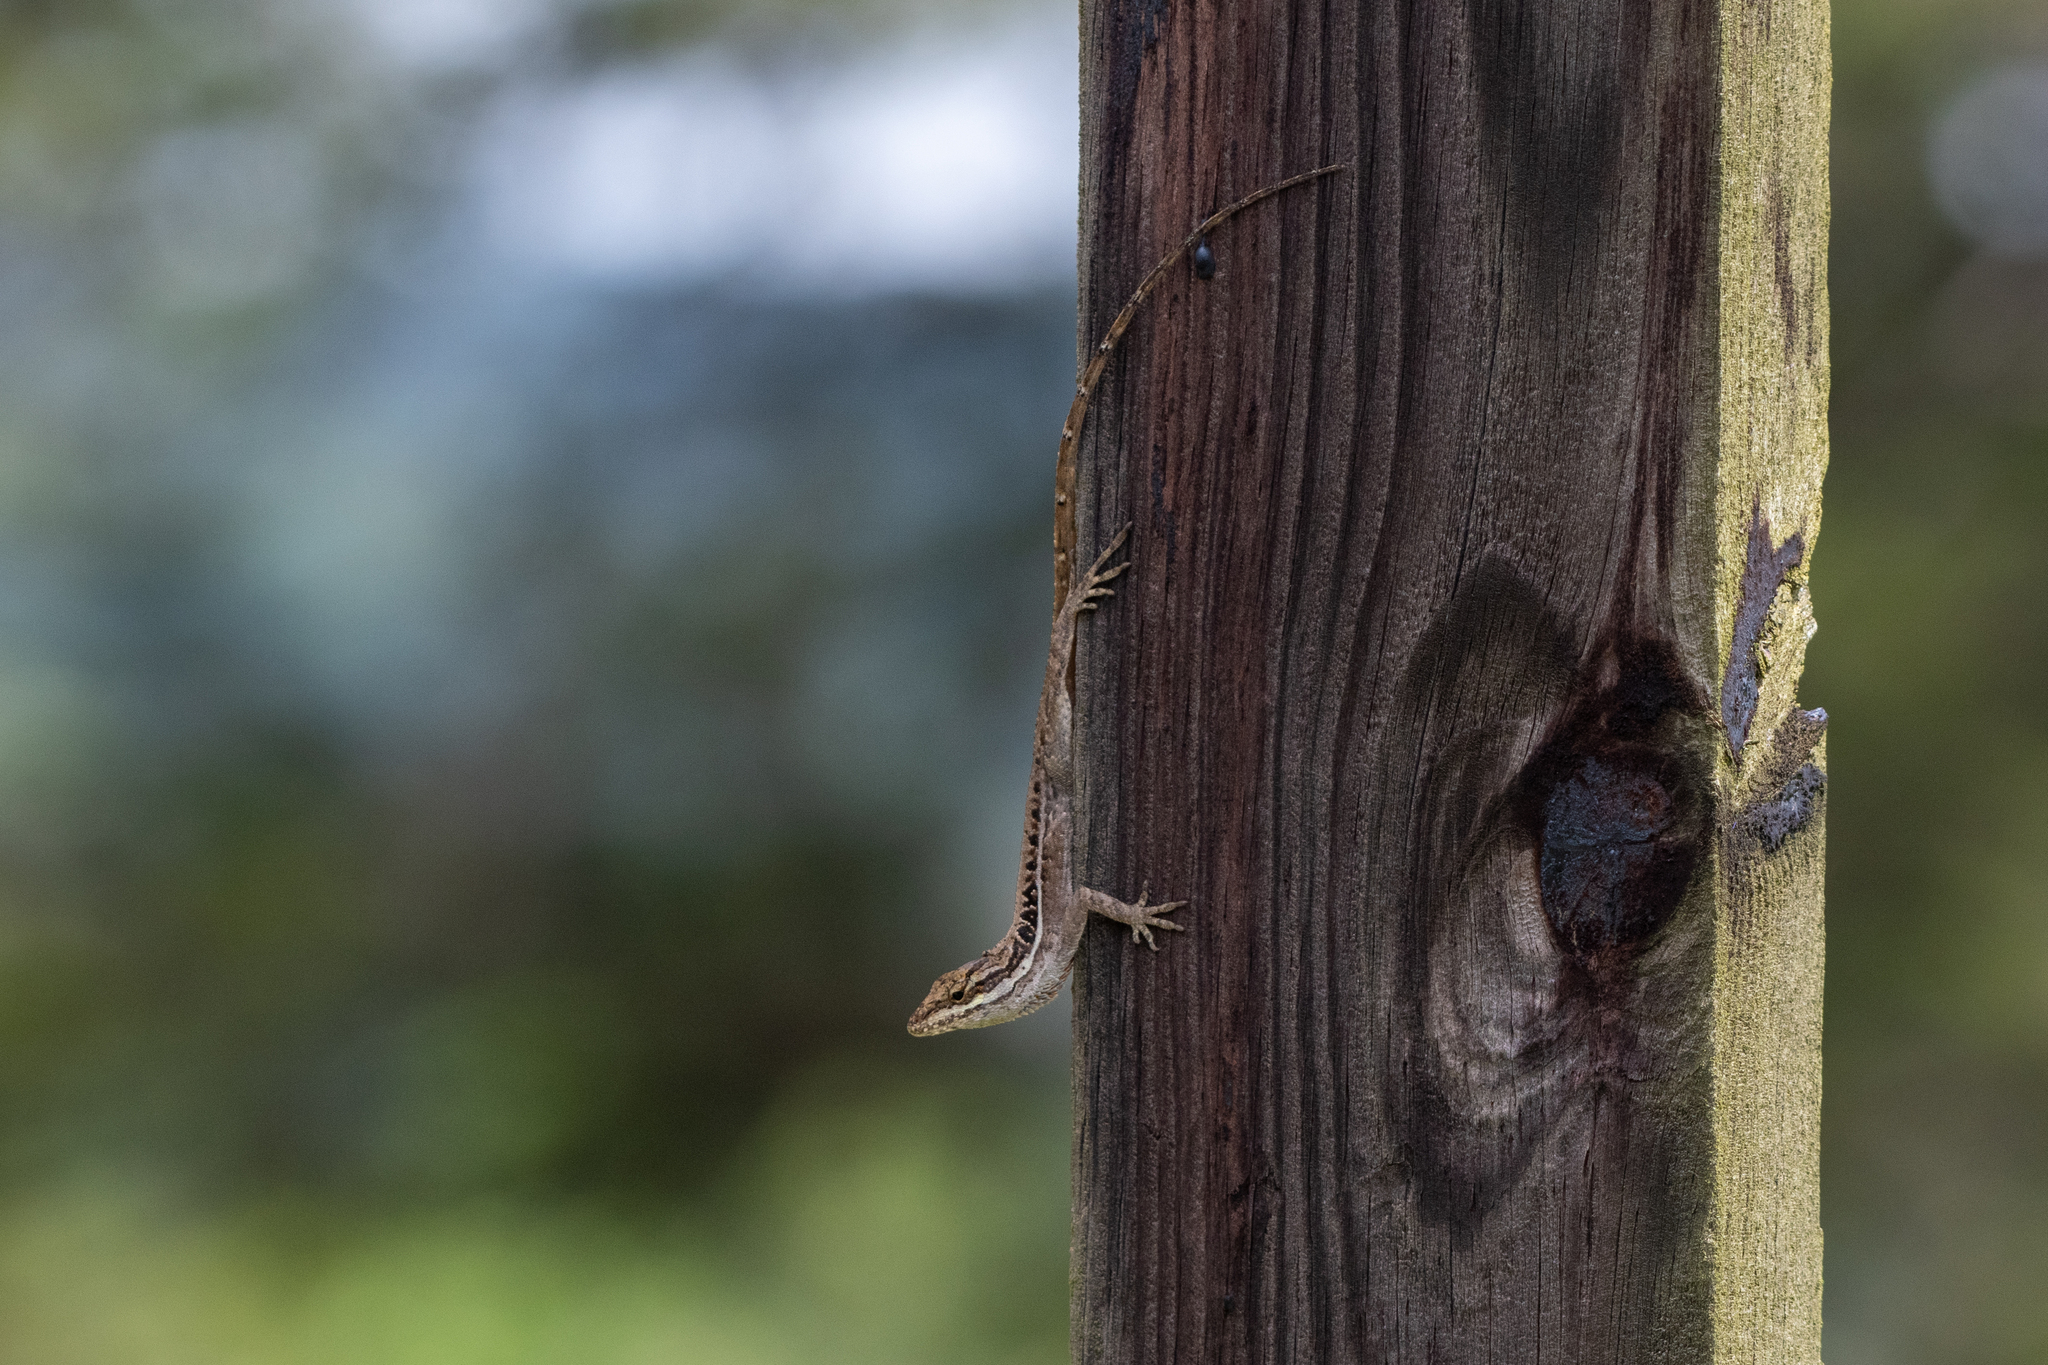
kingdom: Animalia
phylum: Chordata
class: Squamata
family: Dactyloidae
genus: Anolis
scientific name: Anolis caceresae
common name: Berta’s anole
